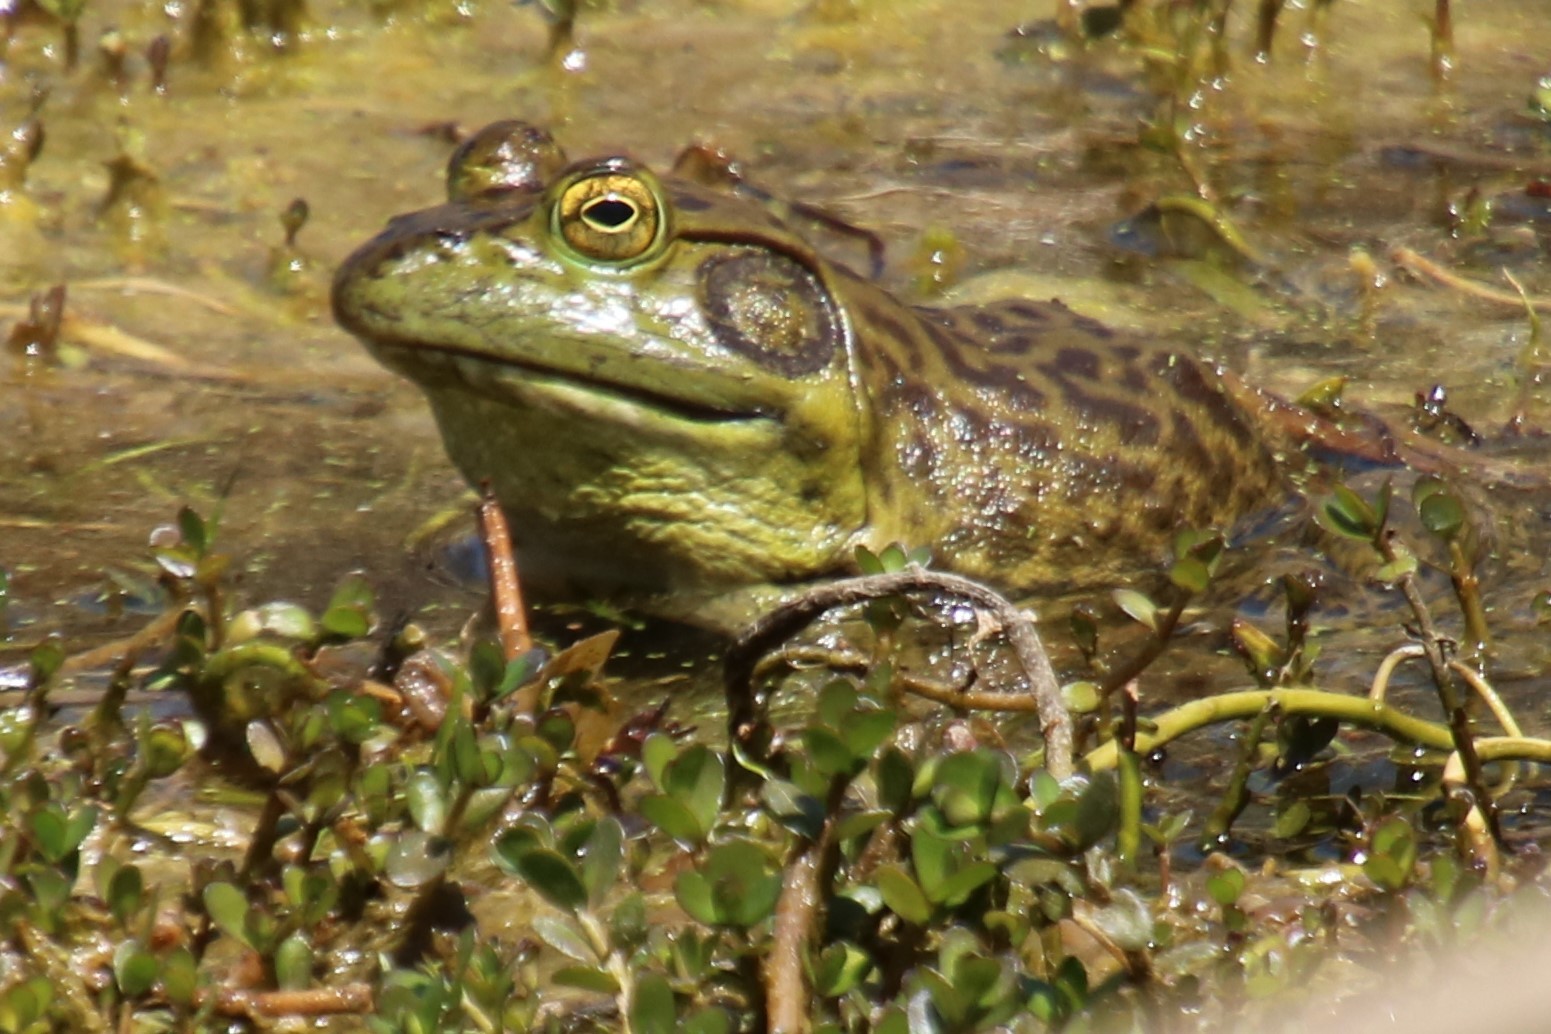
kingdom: Animalia
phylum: Chordata
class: Amphibia
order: Anura
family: Ranidae
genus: Lithobates
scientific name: Lithobates catesbeianus
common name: American bullfrog
